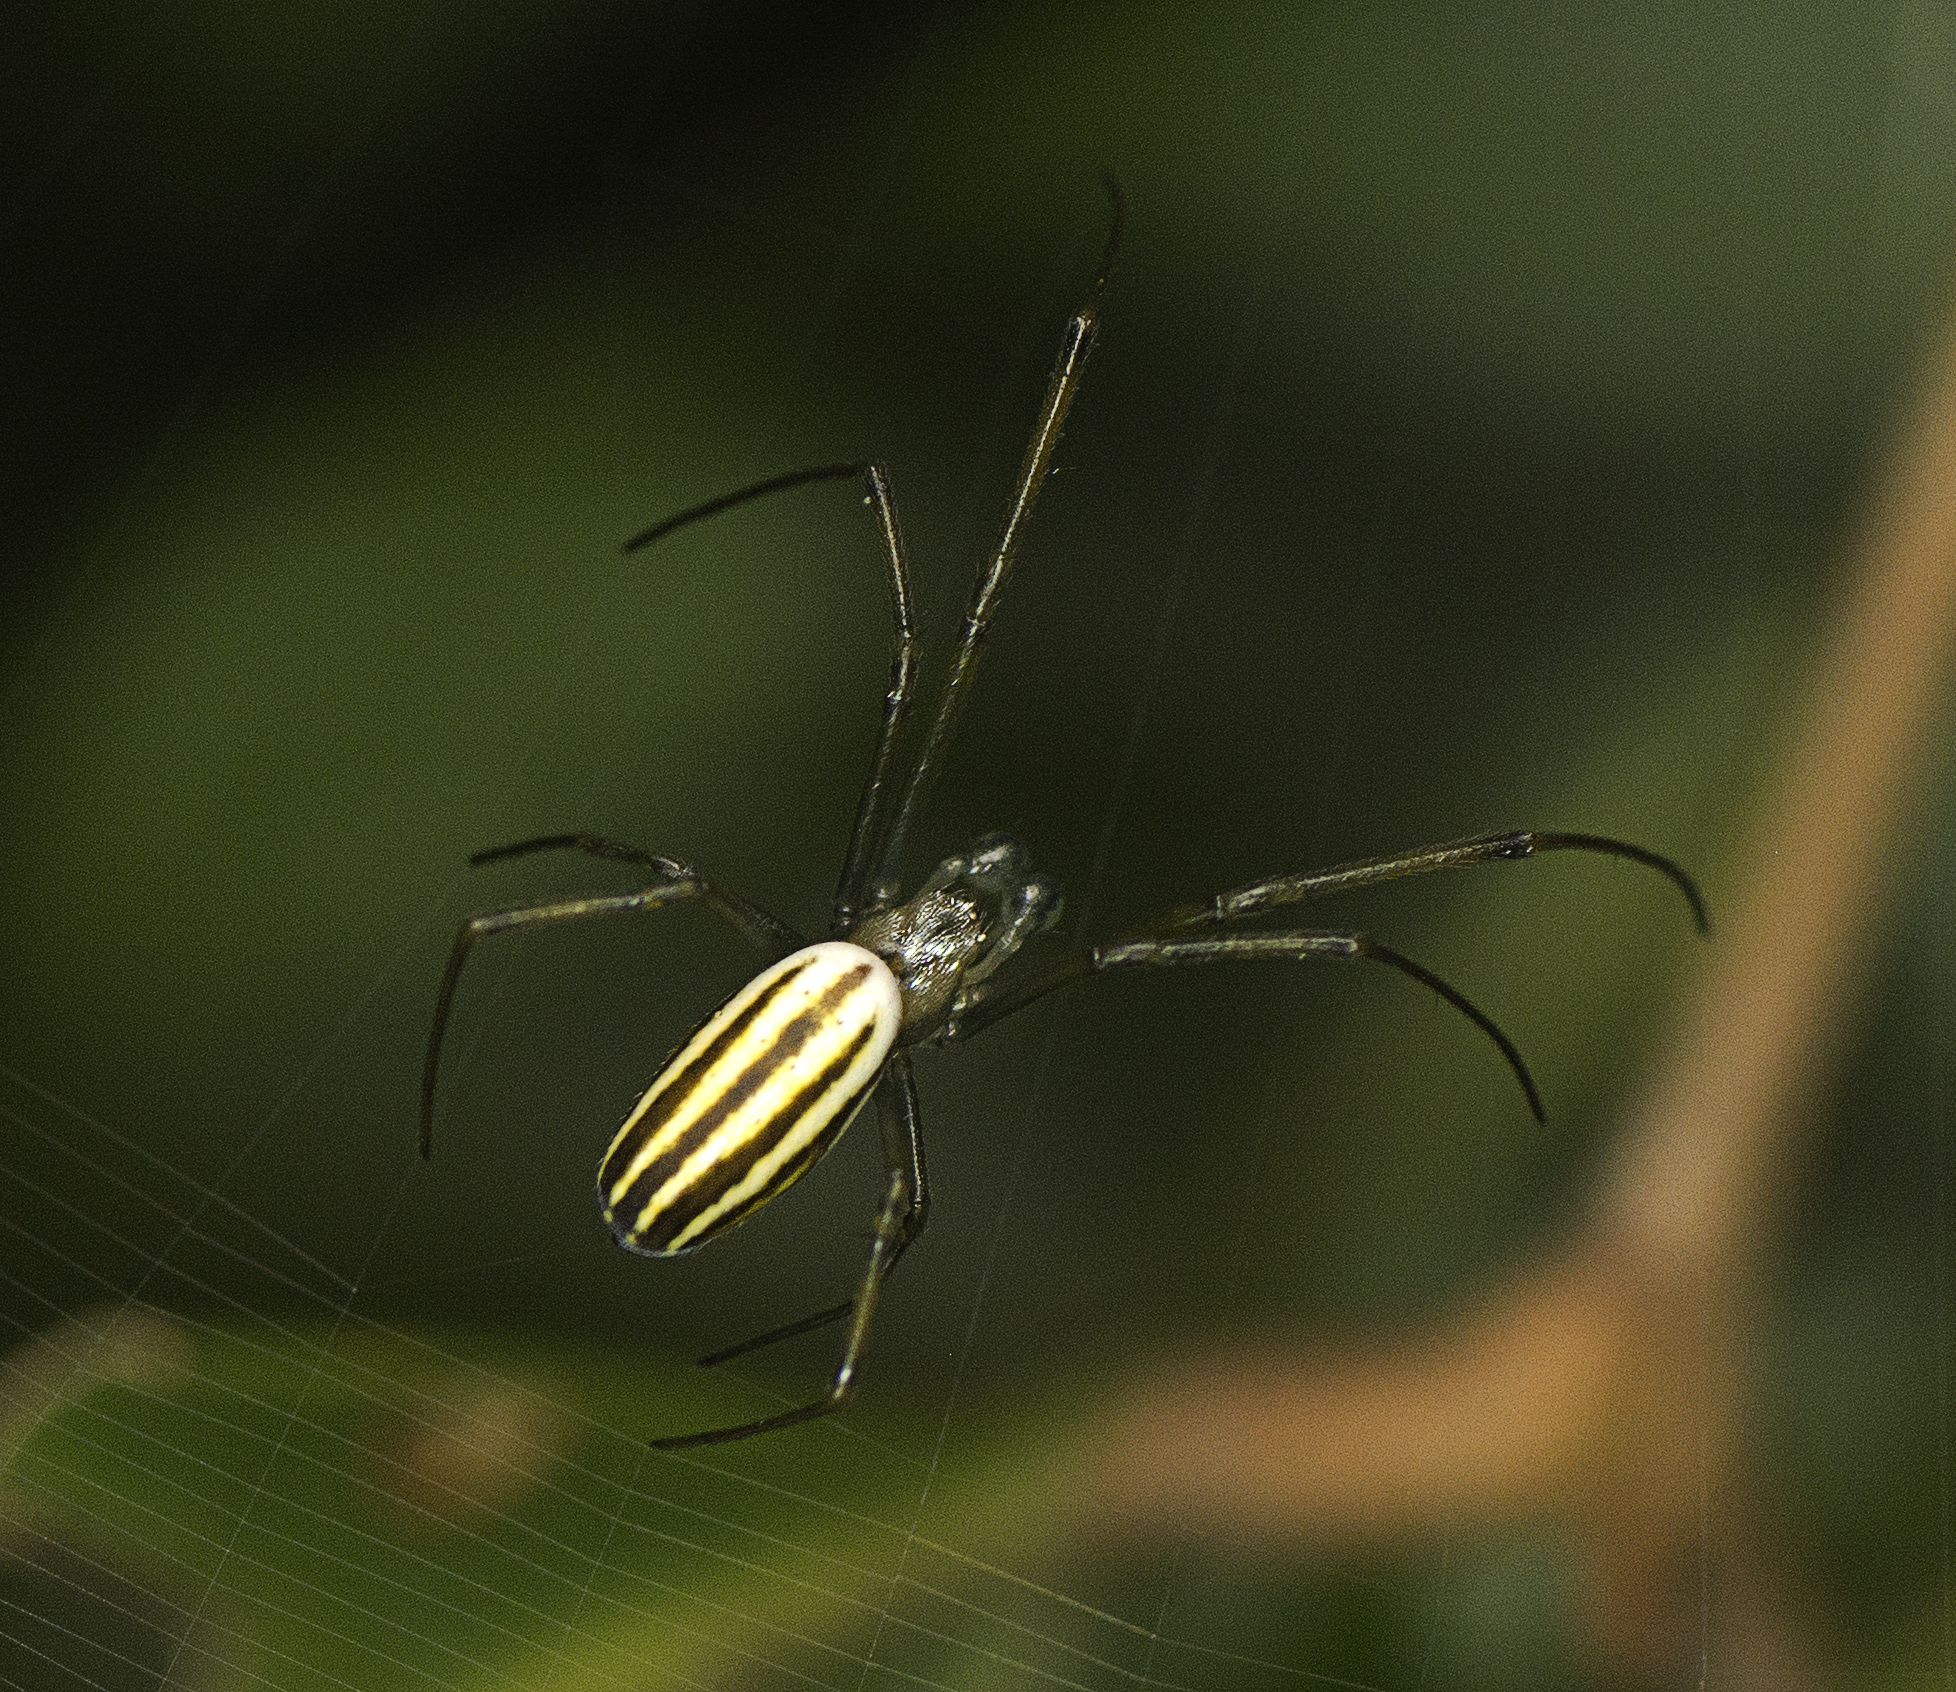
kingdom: Animalia
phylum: Arthropoda
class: Arachnida
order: Araneae
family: Araneidae
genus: Nephila
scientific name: Nephila pilipes
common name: Giant golden orb weaver
